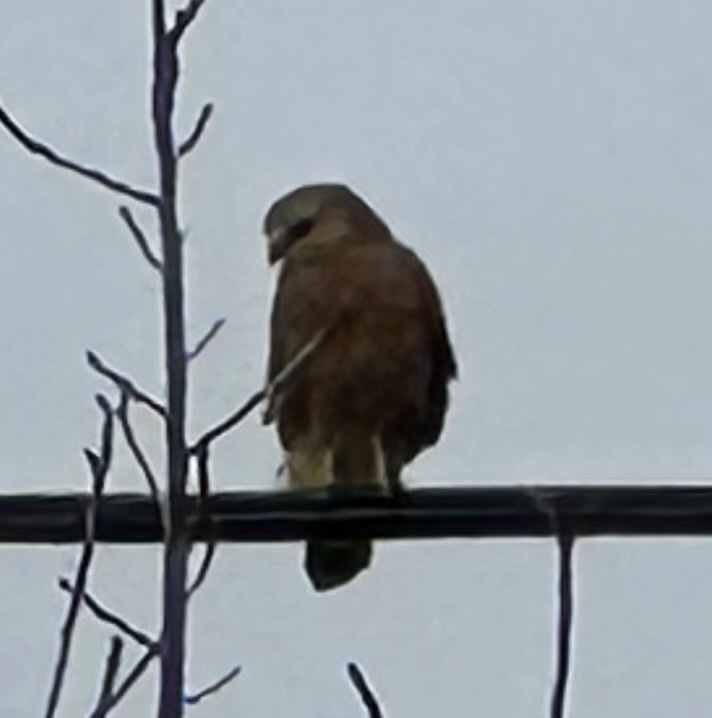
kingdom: Animalia
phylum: Chordata
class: Aves
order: Accipitriformes
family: Accipitridae
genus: Buteo
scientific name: Buteo lineatus
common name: Red-shouldered hawk
